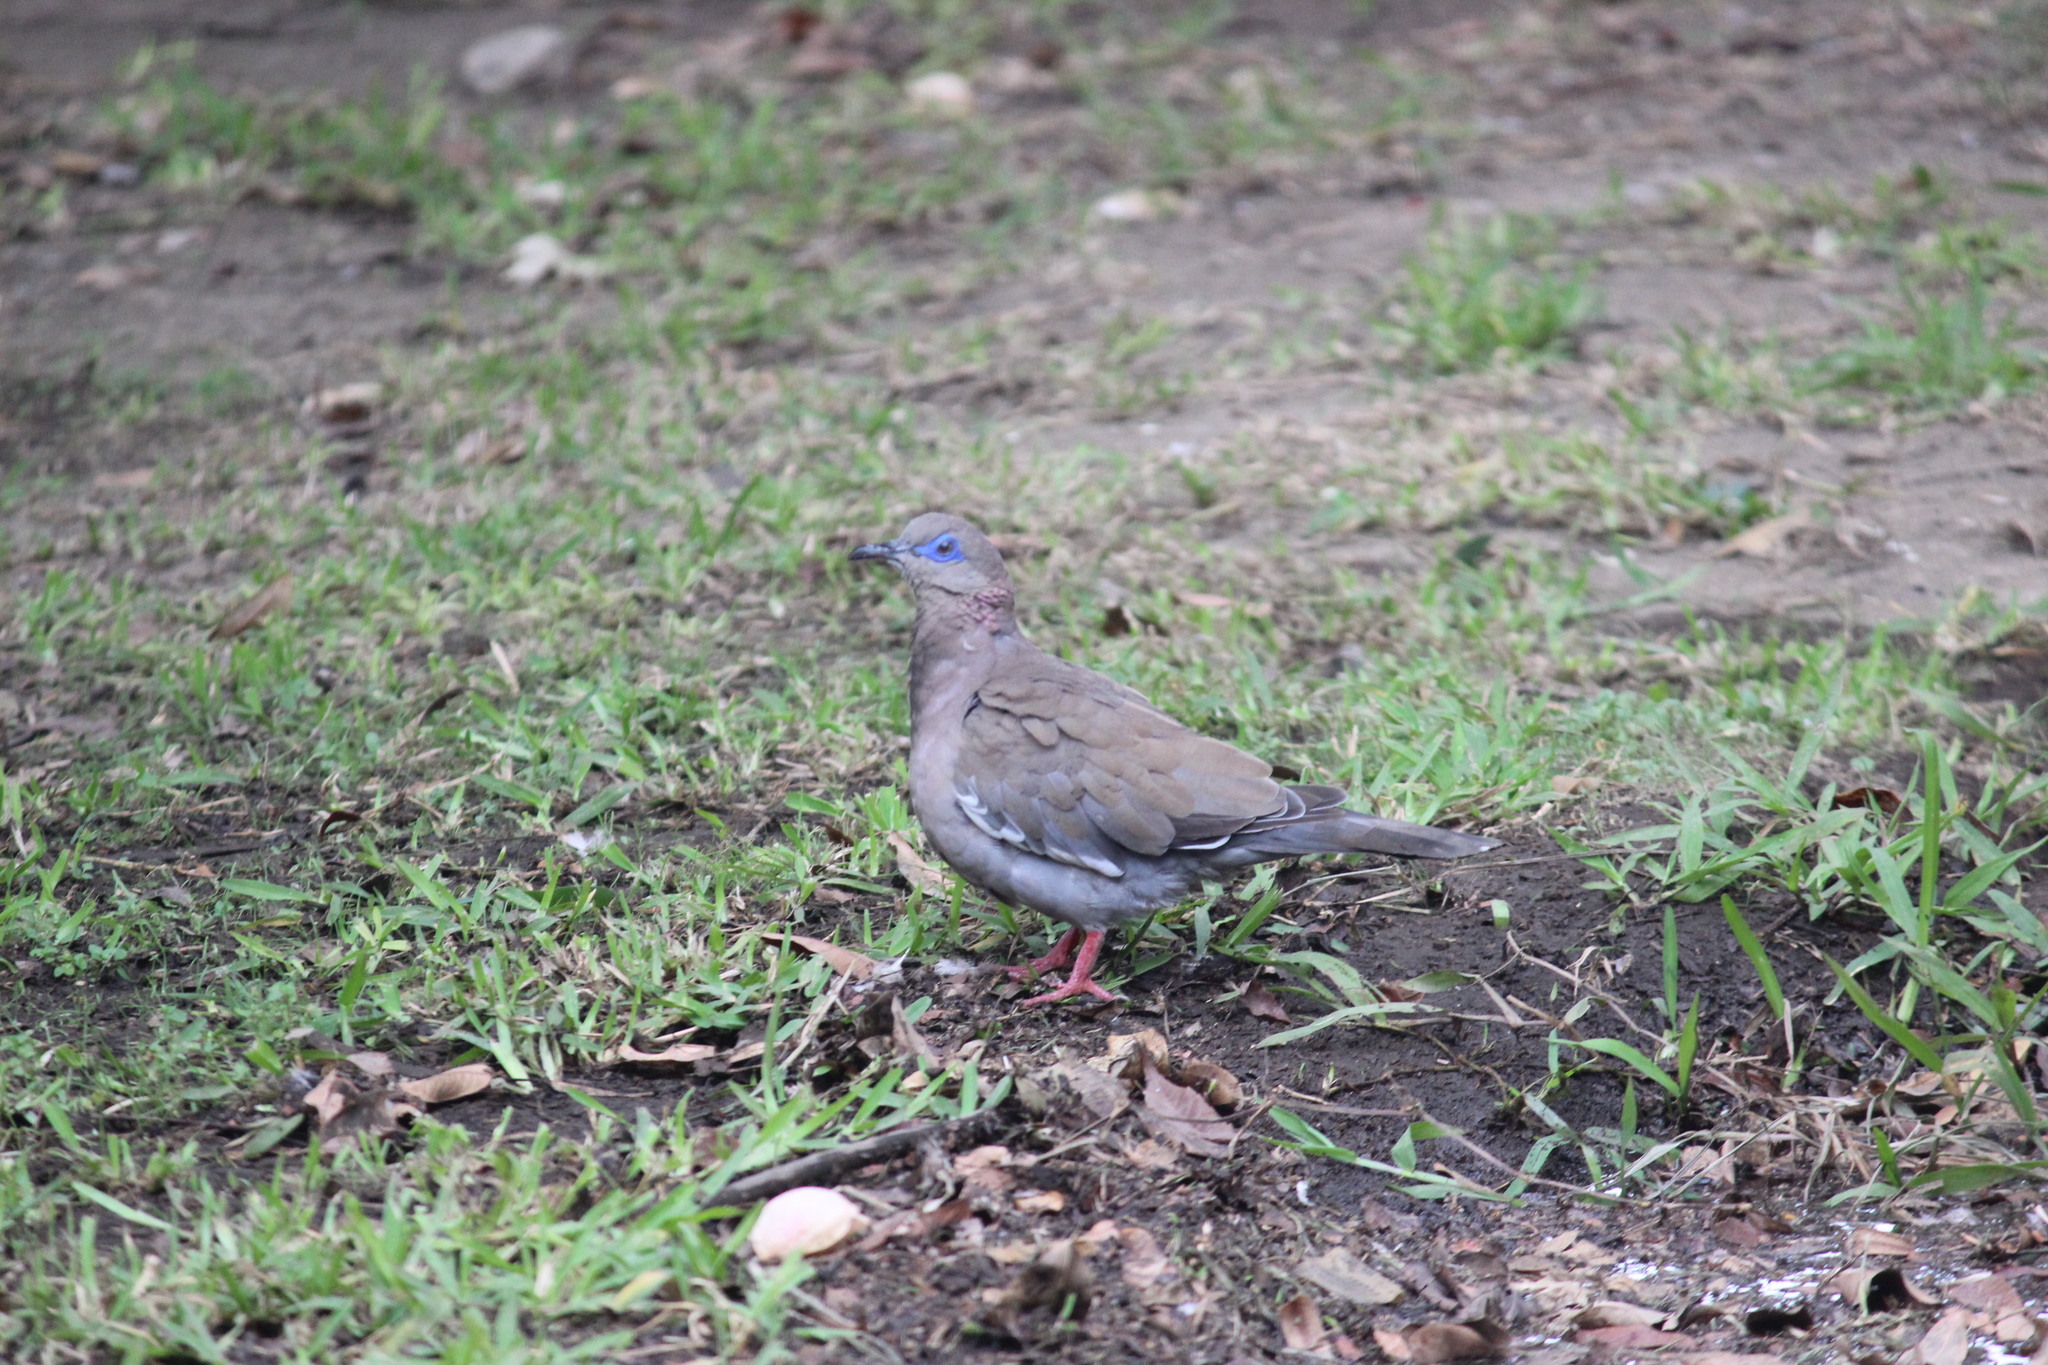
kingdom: Animalia
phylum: Chordata
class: Aves
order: Columbiformes
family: Columbidae
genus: Zenaida
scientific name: Zenaida meloda
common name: West peruvian dove
